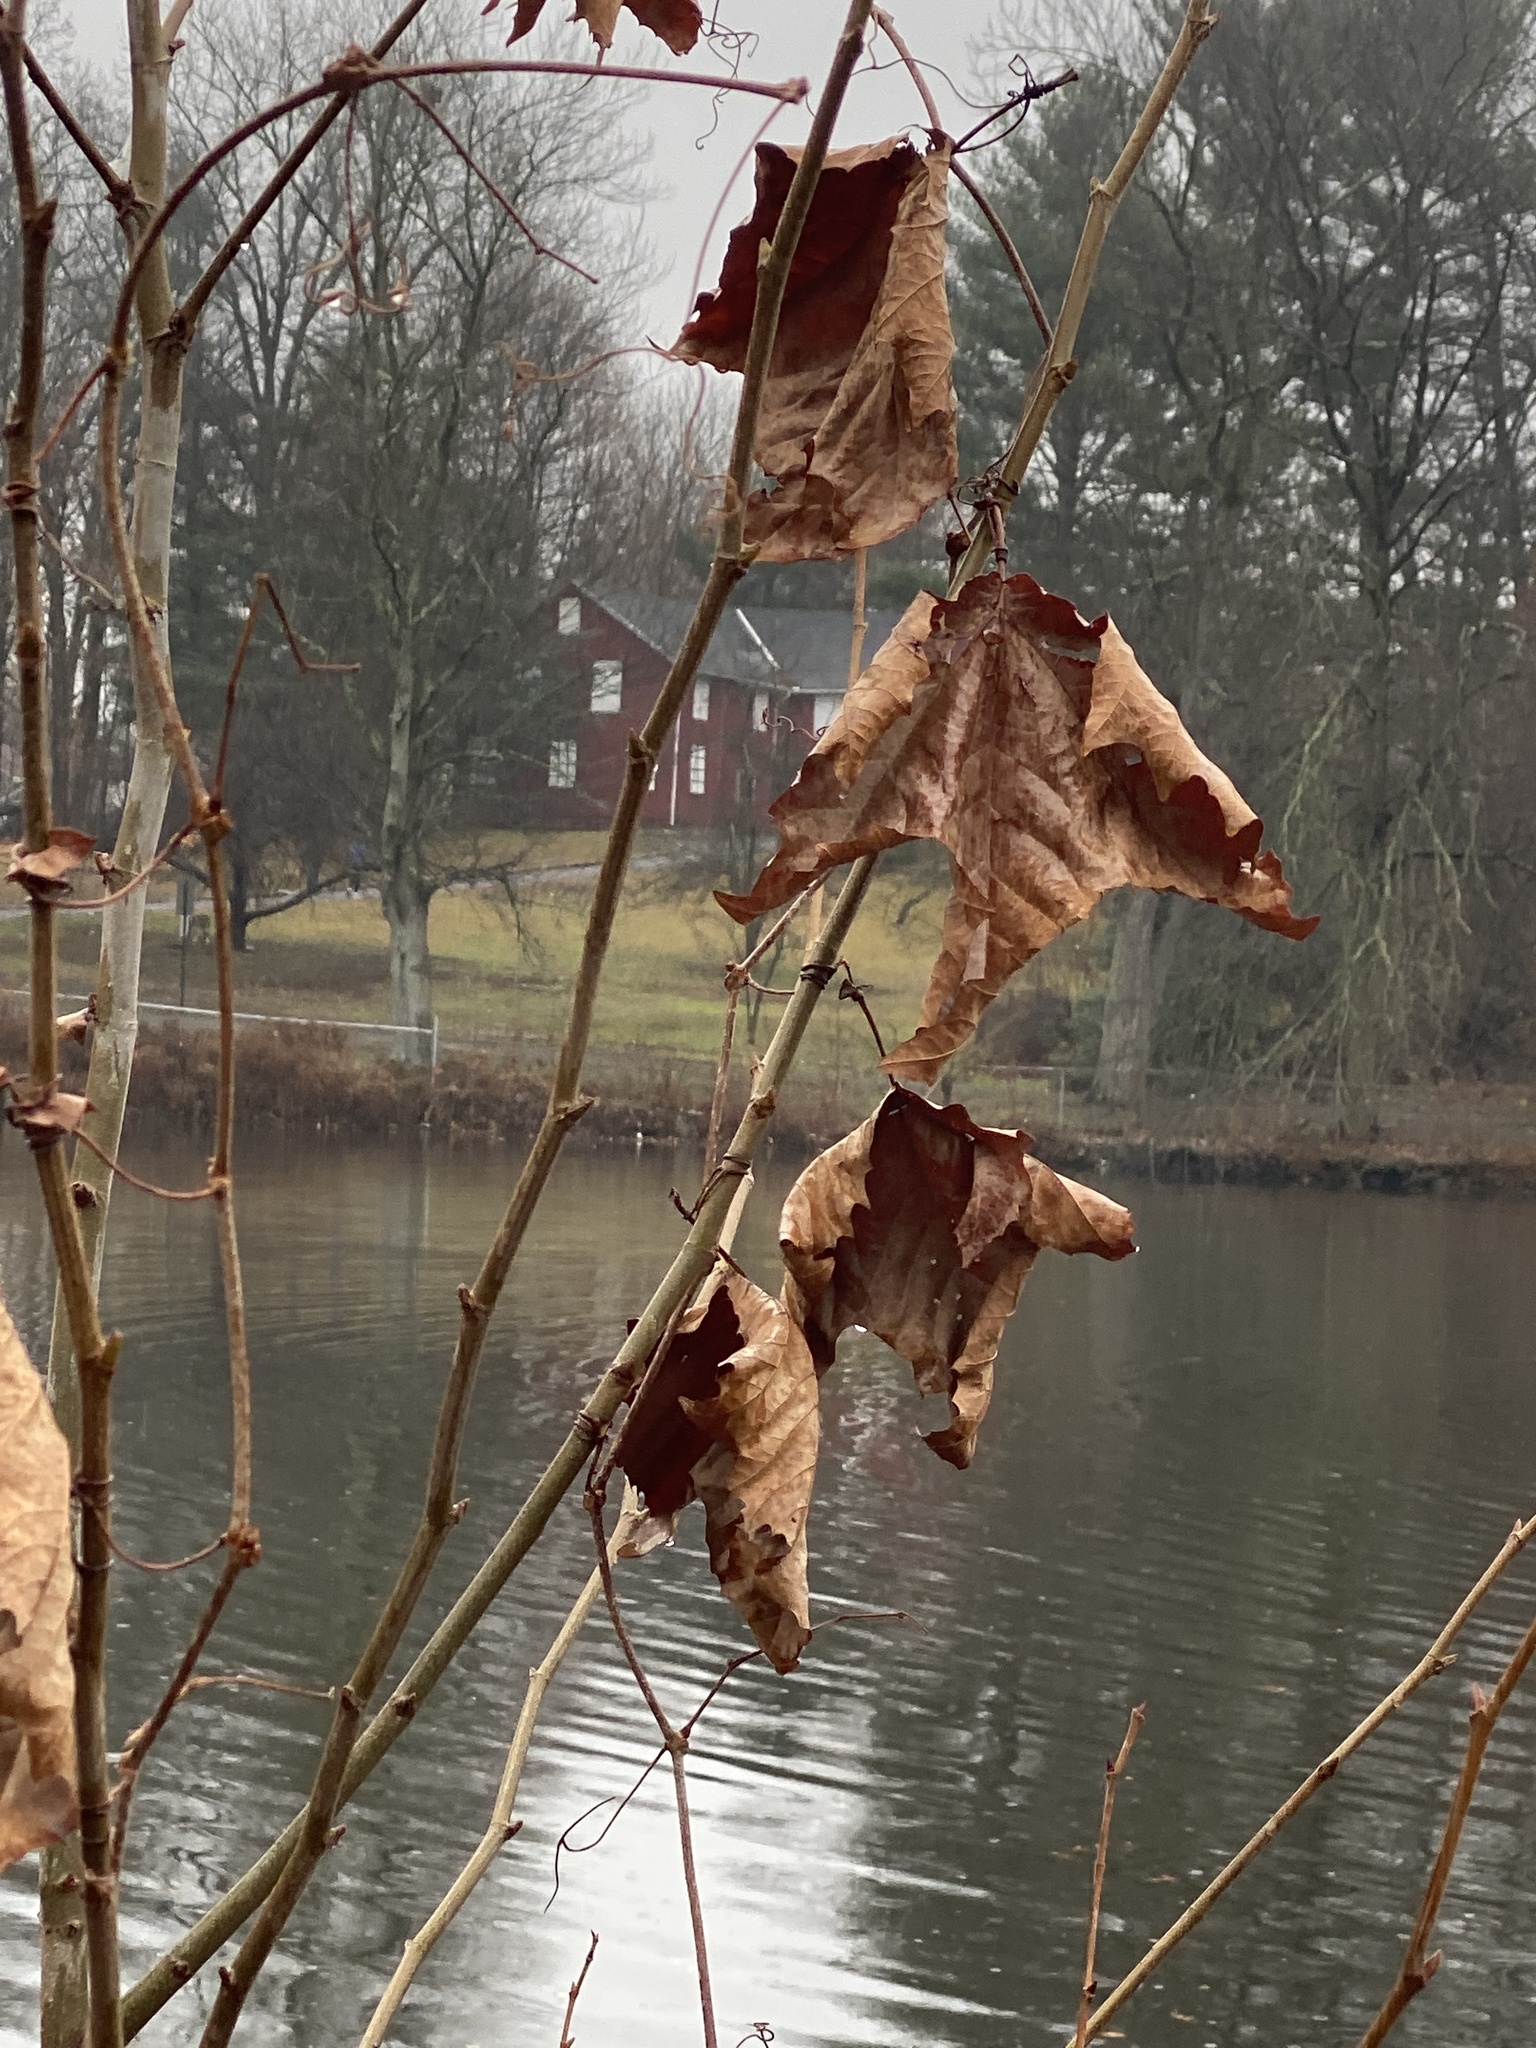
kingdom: Plantae
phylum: Tracheophyta
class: Magnoliopsida
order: Proteales
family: Platanaceae
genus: Platanus
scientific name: Platanus occidentalis
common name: American sycamore
